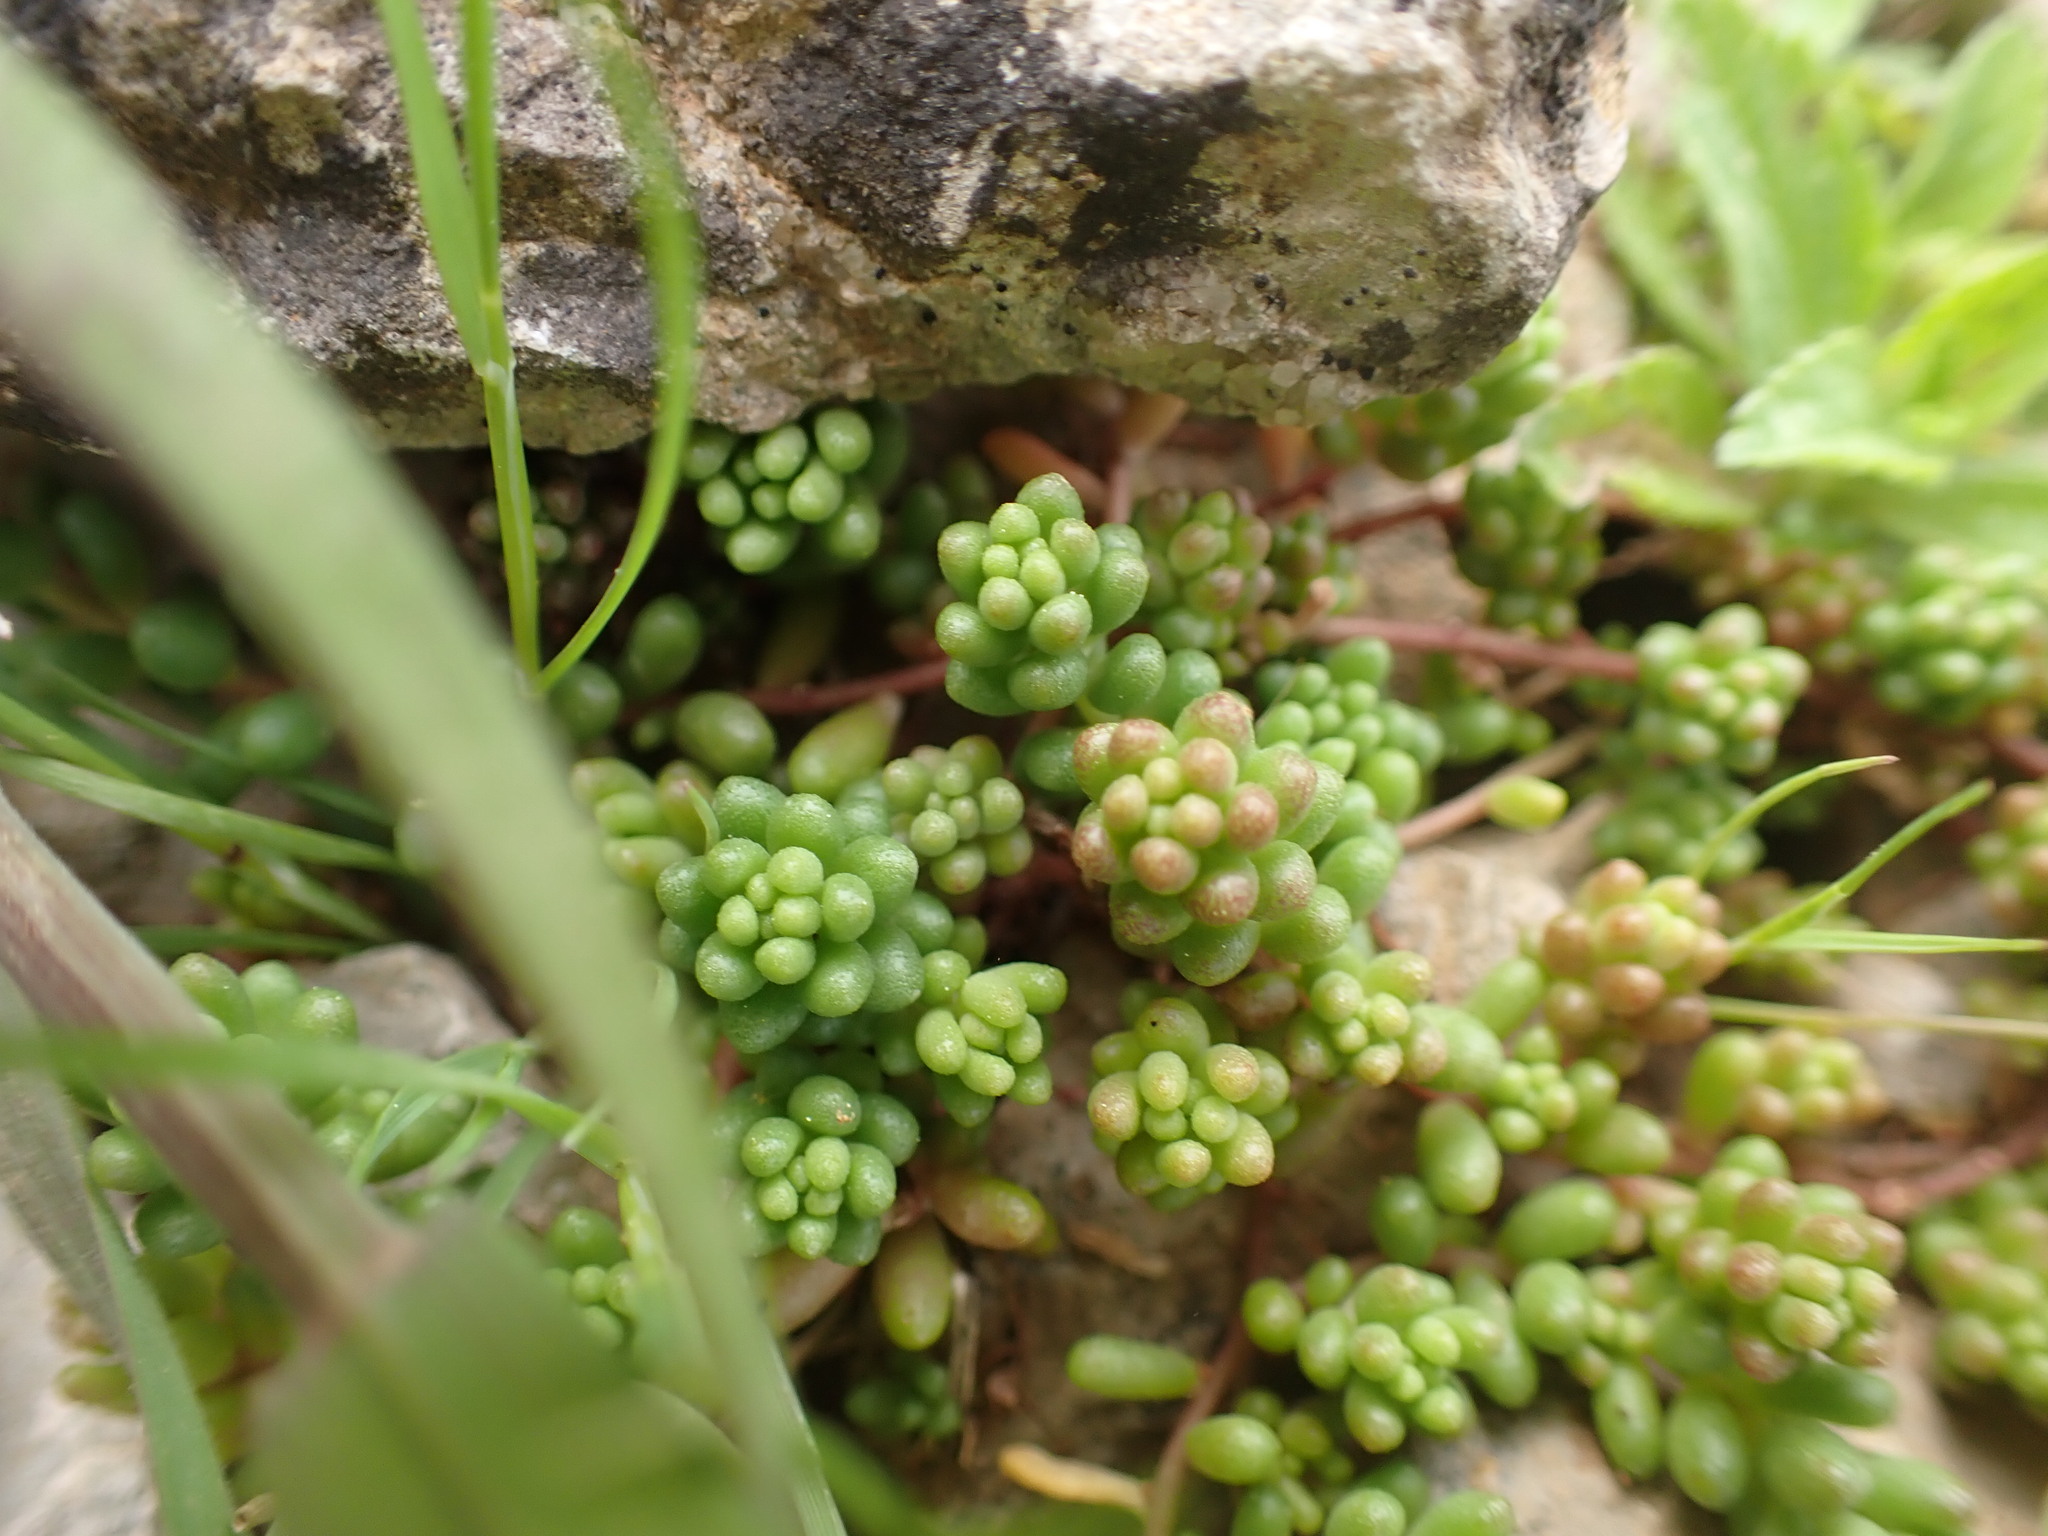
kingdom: Plantae
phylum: Tracheophyta
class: Magnoliopsida
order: Saxifragales
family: Crassulaceae
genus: Sedum
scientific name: Sedum album
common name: White stonecrop
